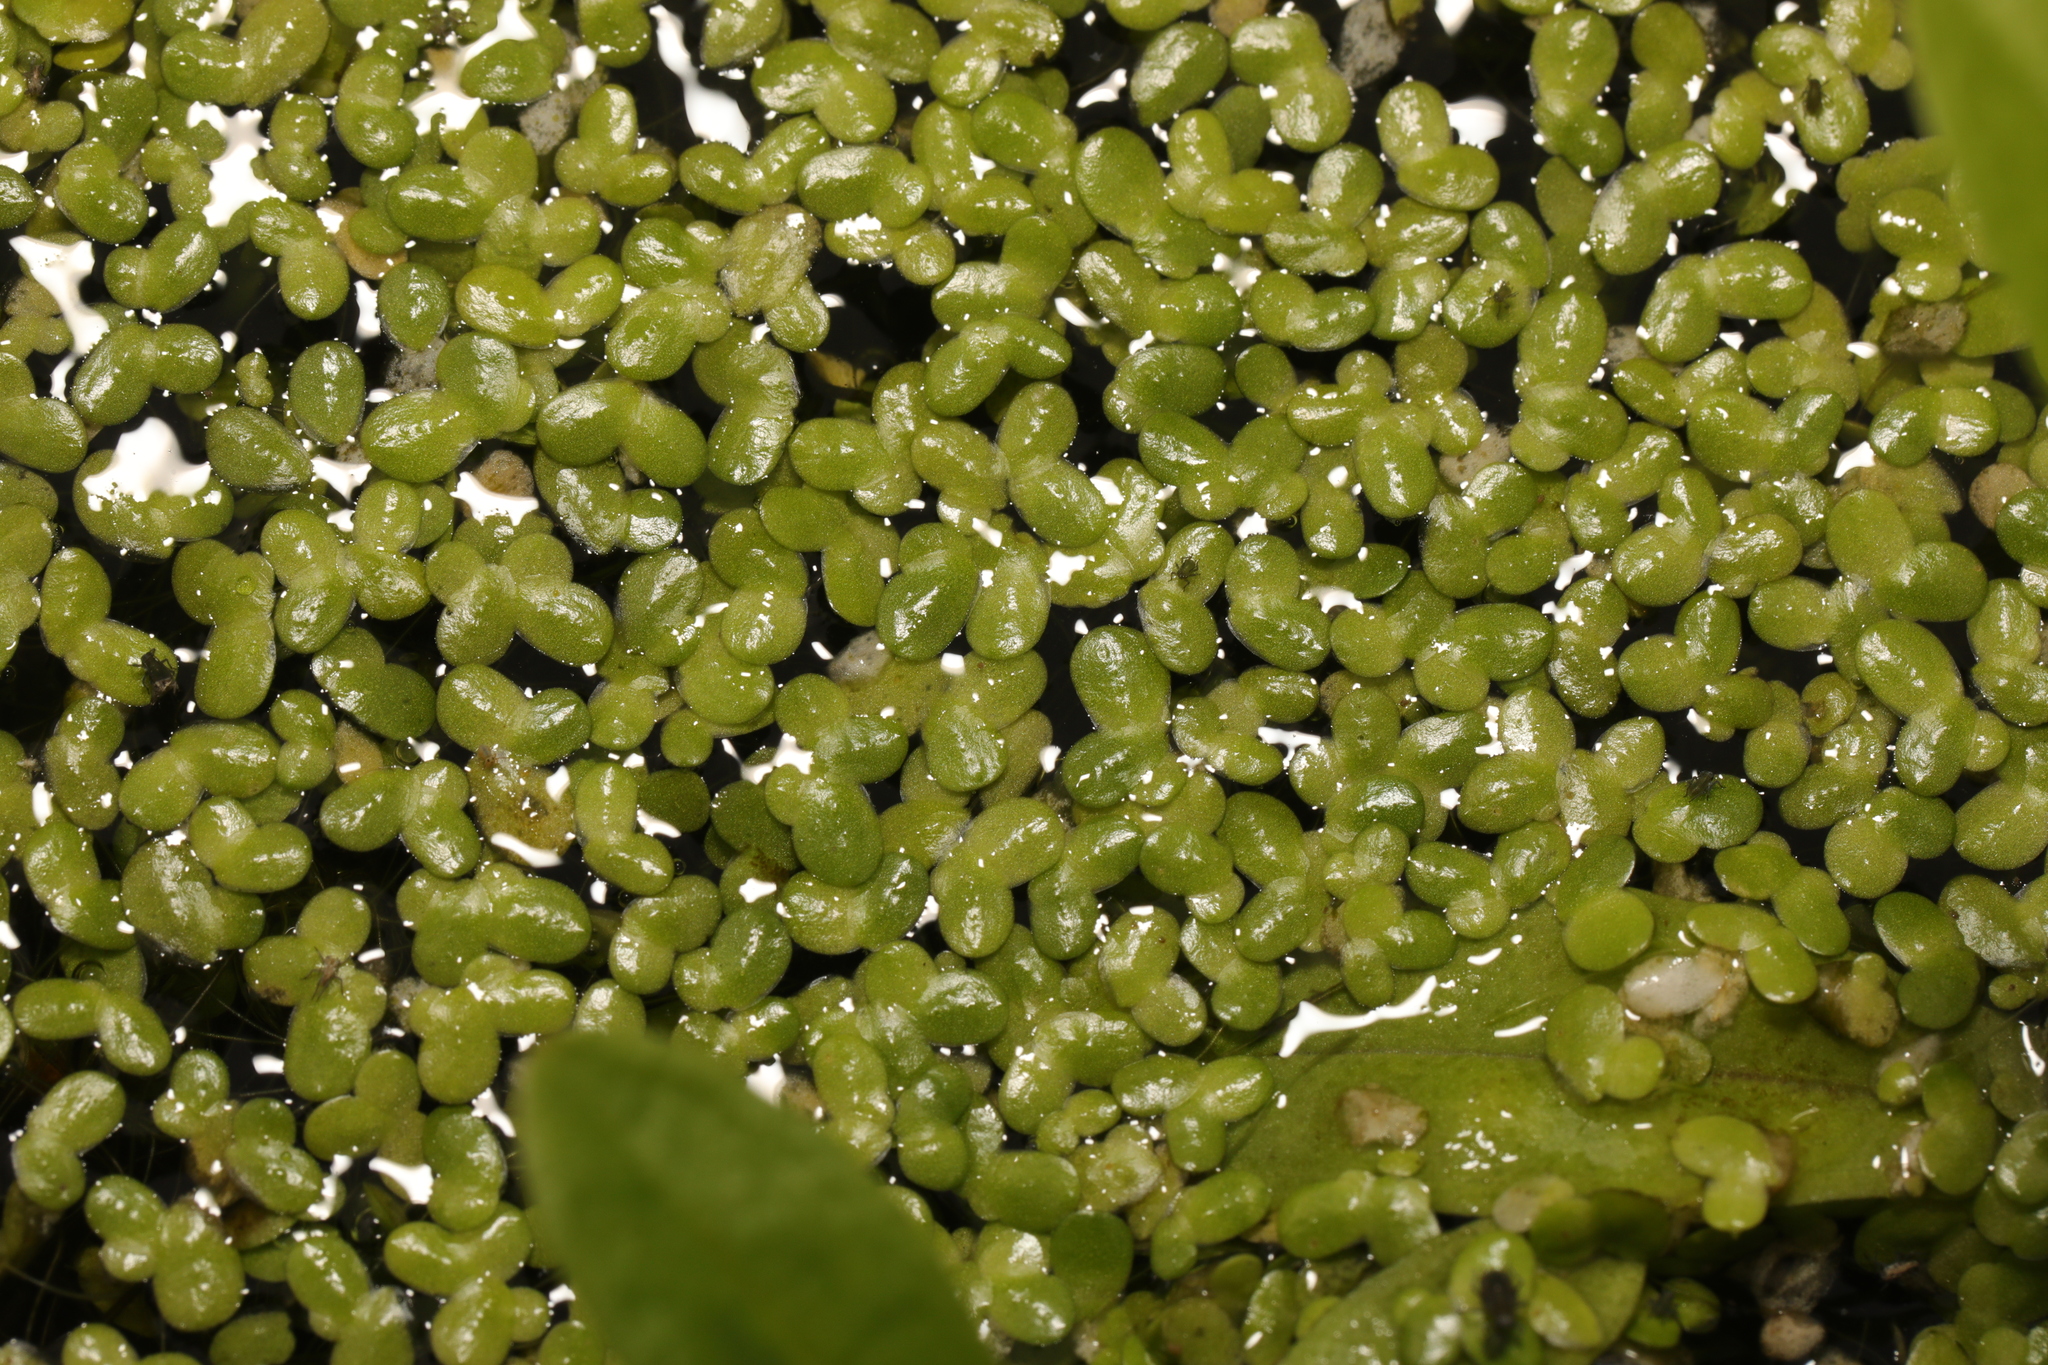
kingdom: Plantae
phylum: Tracheophyta
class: Liliopsida
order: Alismatales
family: Araceae
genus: Lemna
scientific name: Lemna minor
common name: Common duckweed
